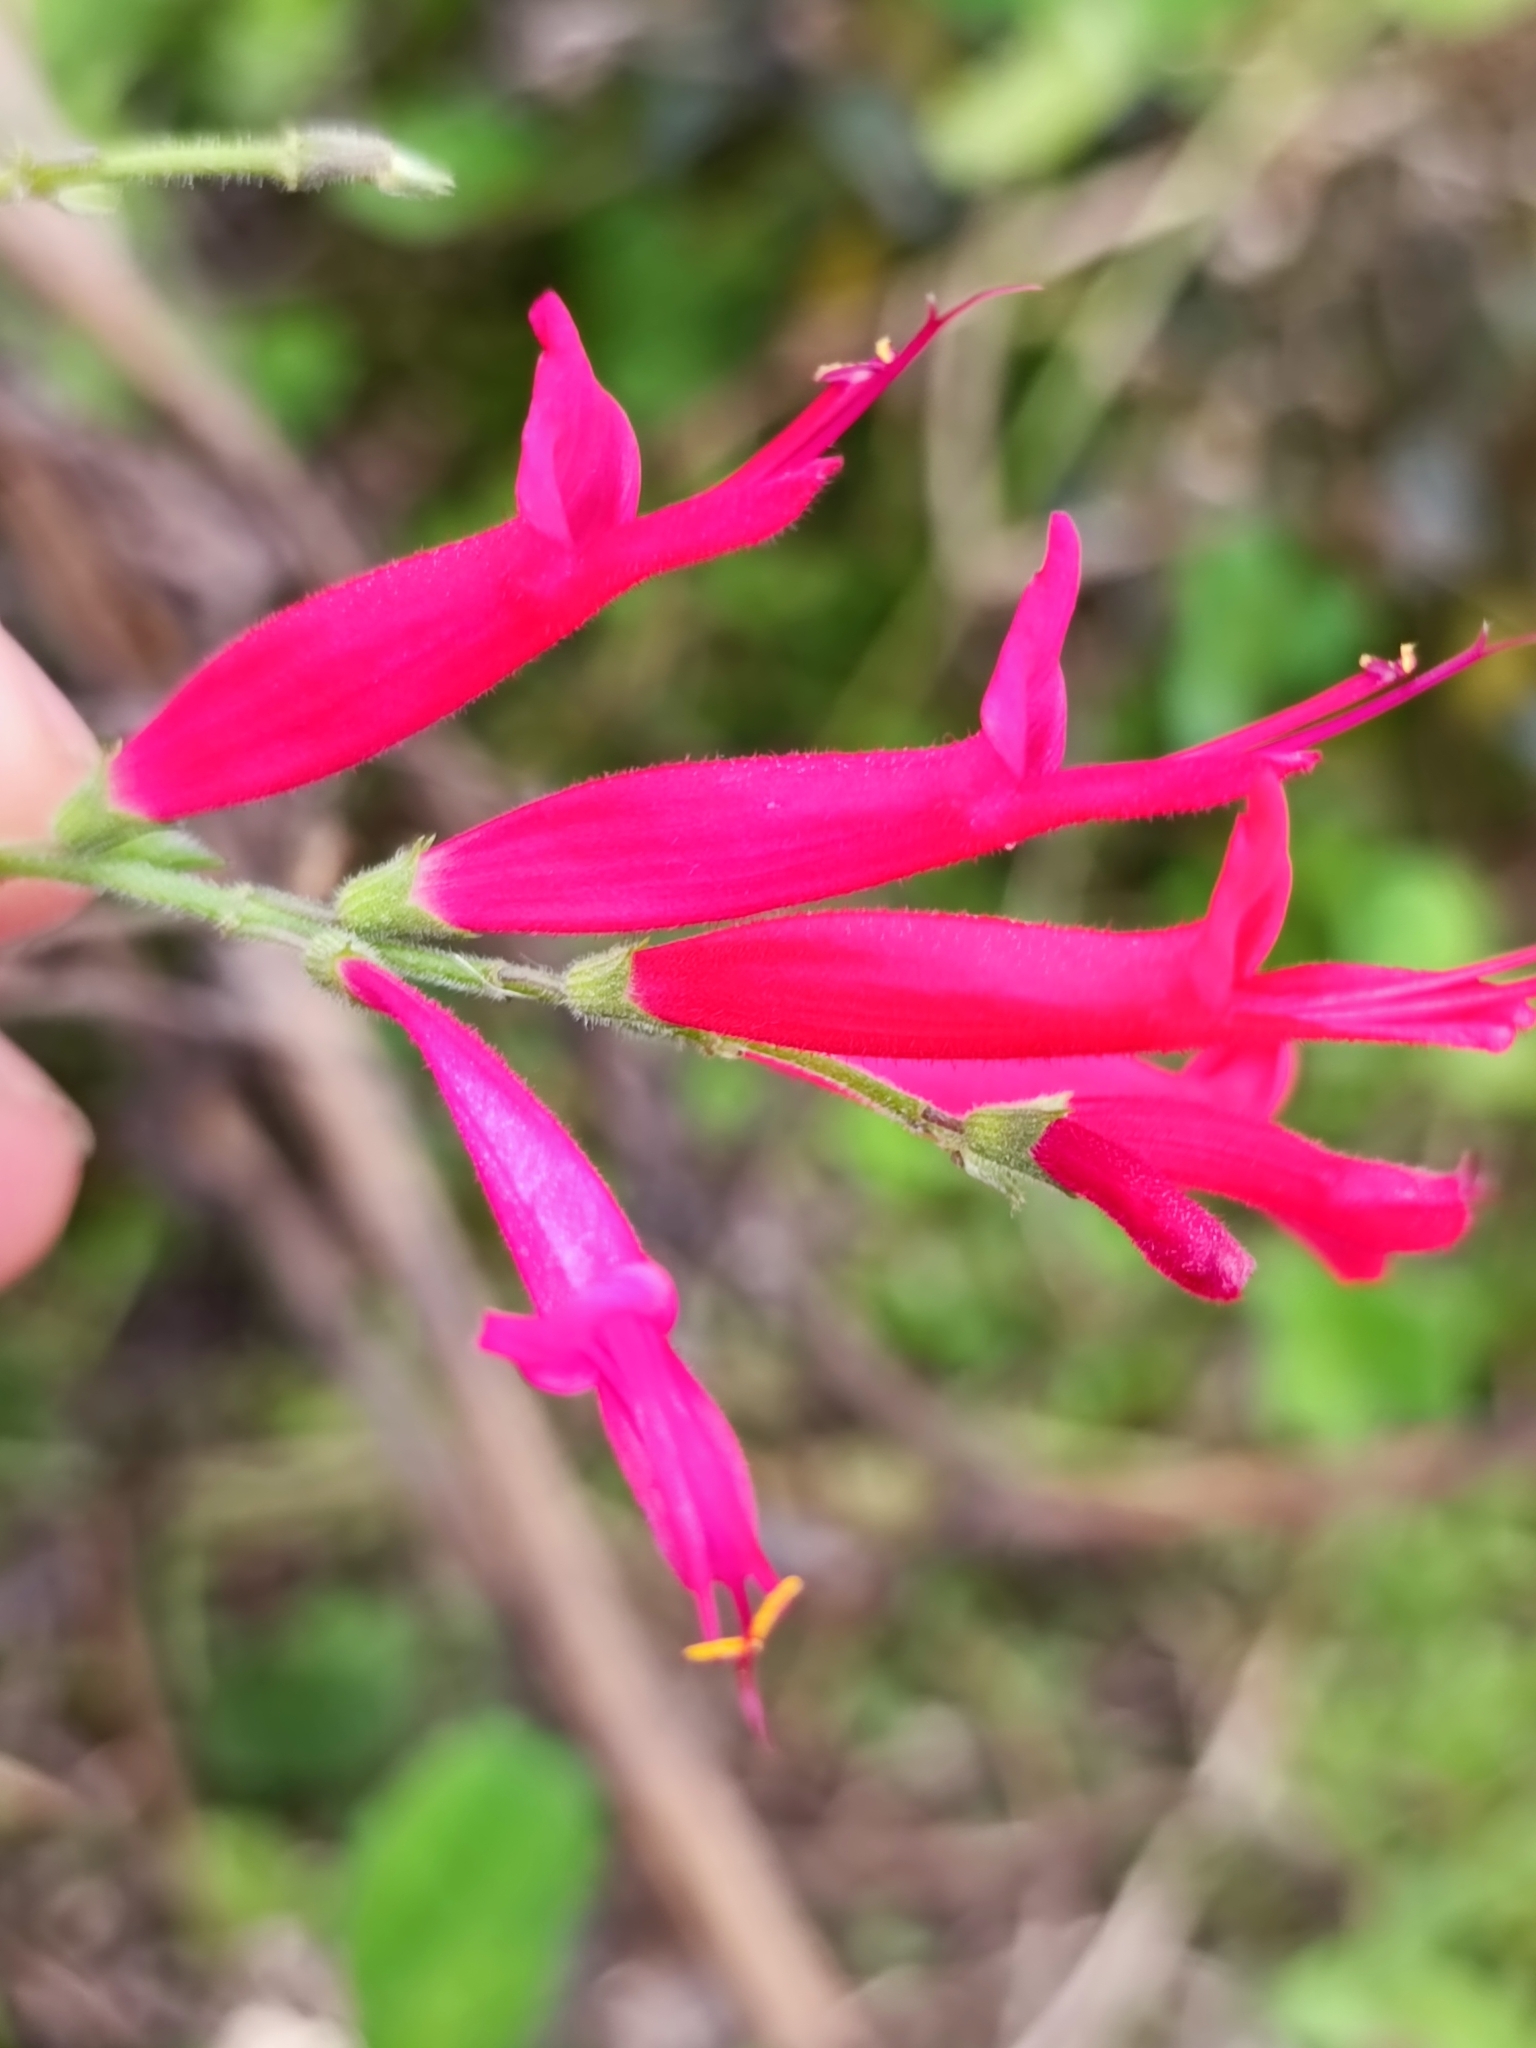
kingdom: Plantae
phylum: Tracheophyta
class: Magnoliopsida
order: Lamiales
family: Lamiaceae
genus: Salvia
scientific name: Salvia elegans
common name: Pineapple sage
